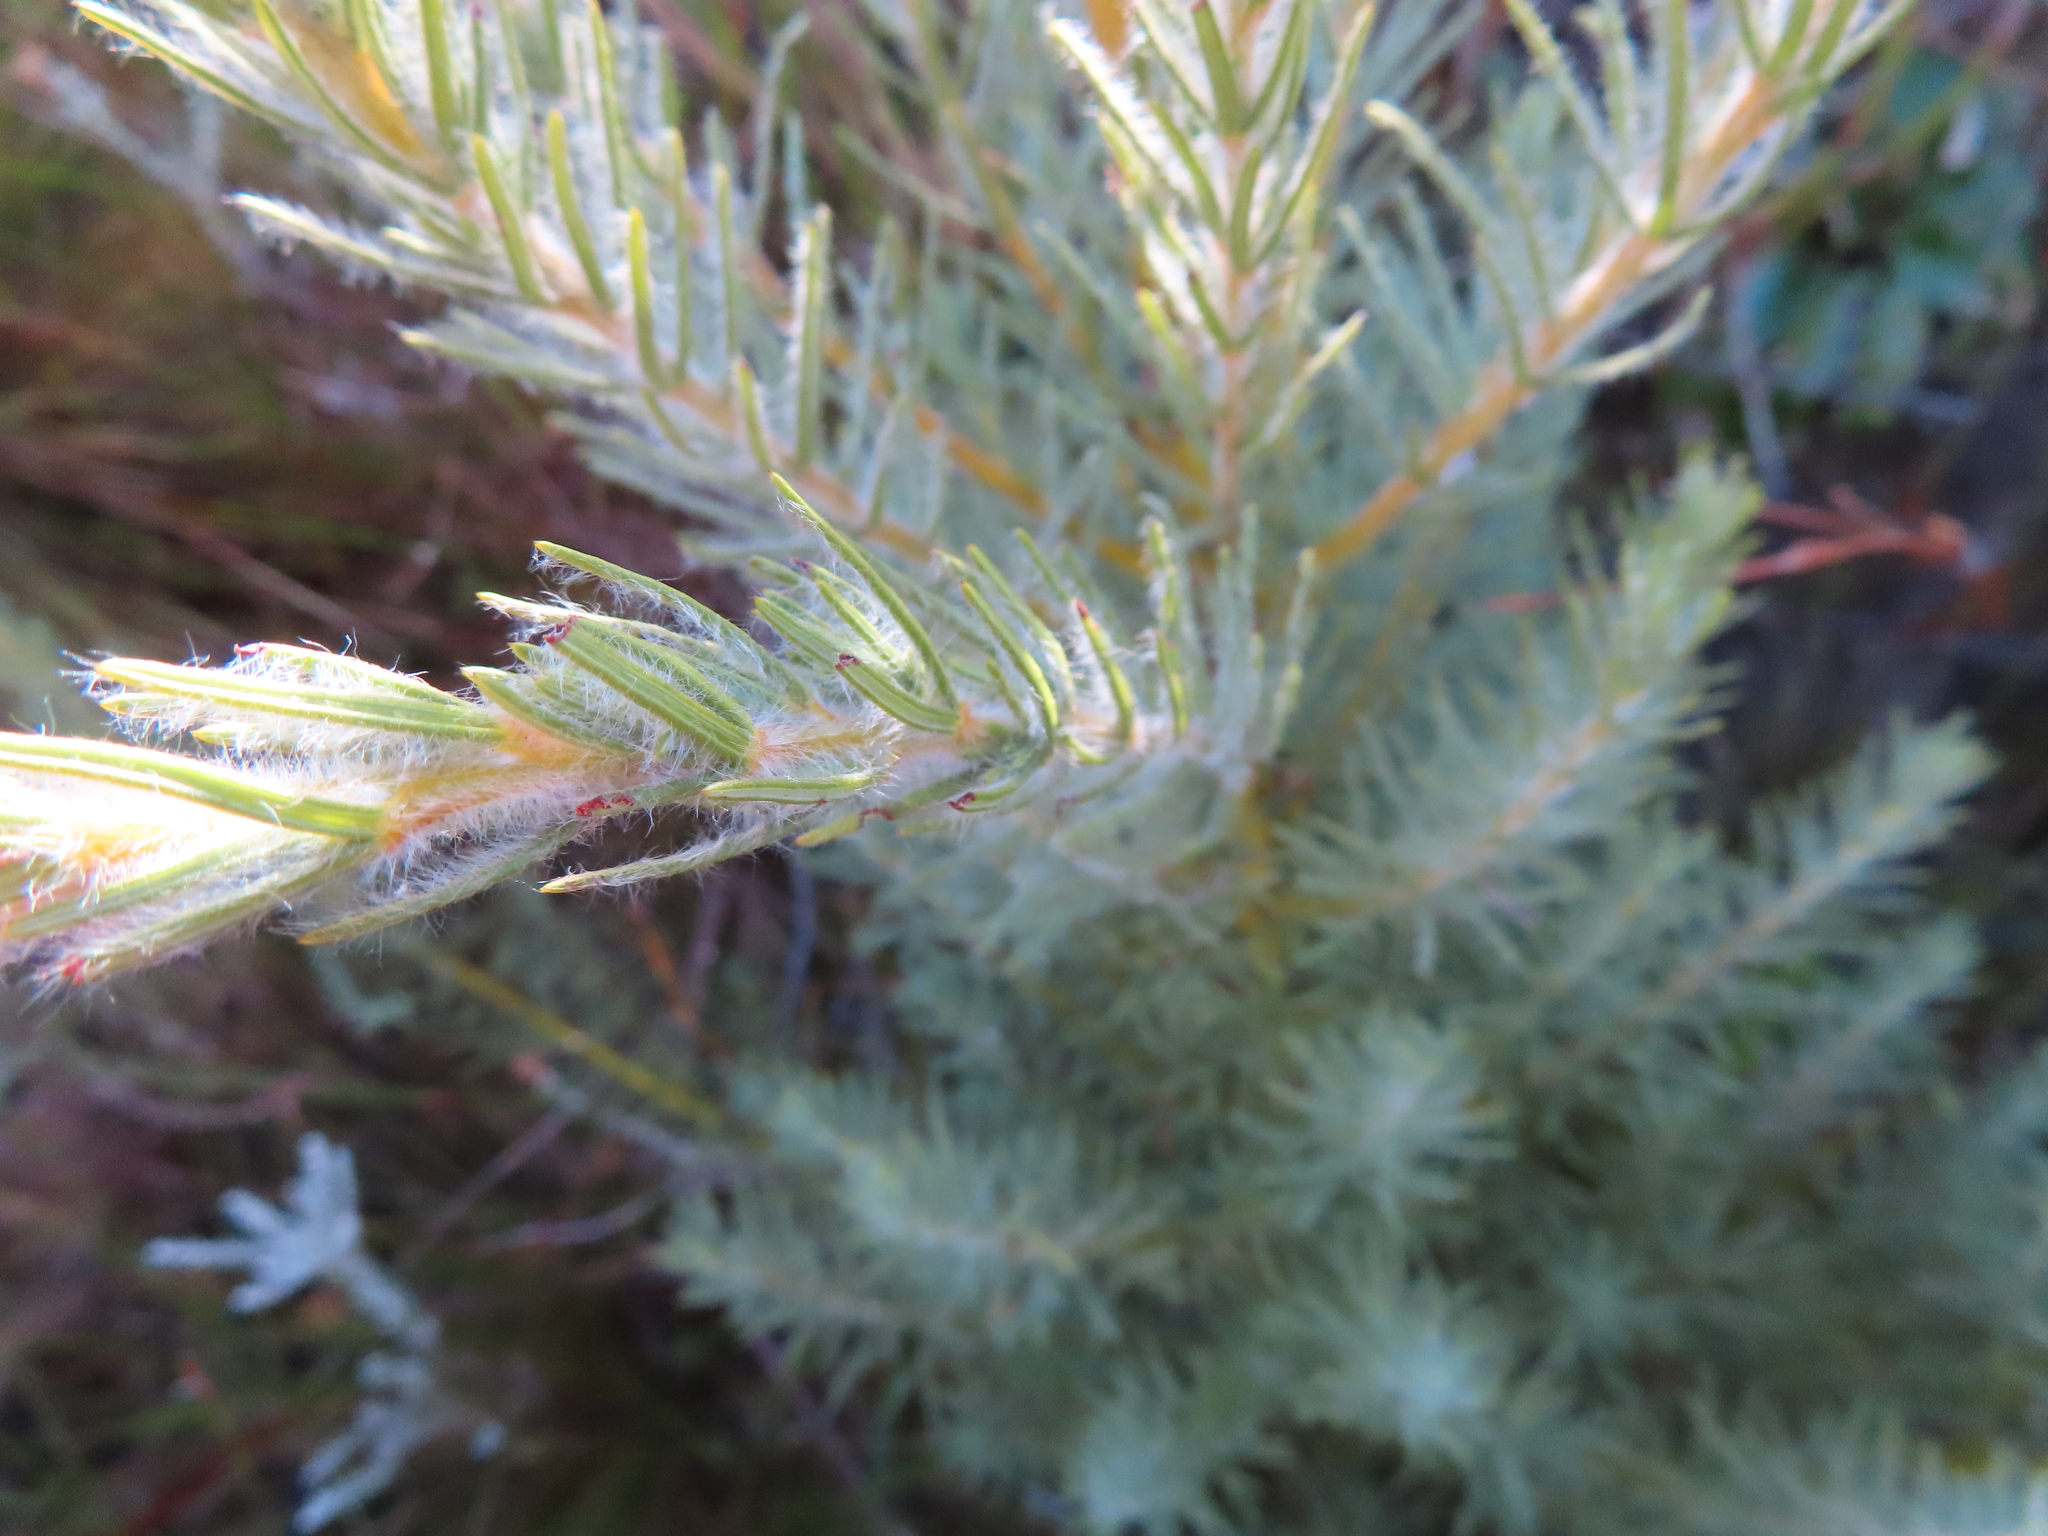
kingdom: Plantae
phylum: Tracheophyta
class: Magnoliopsida
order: Fabales
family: Fabaceae
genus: Cyclopia
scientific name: Cyclopia meyeriana
